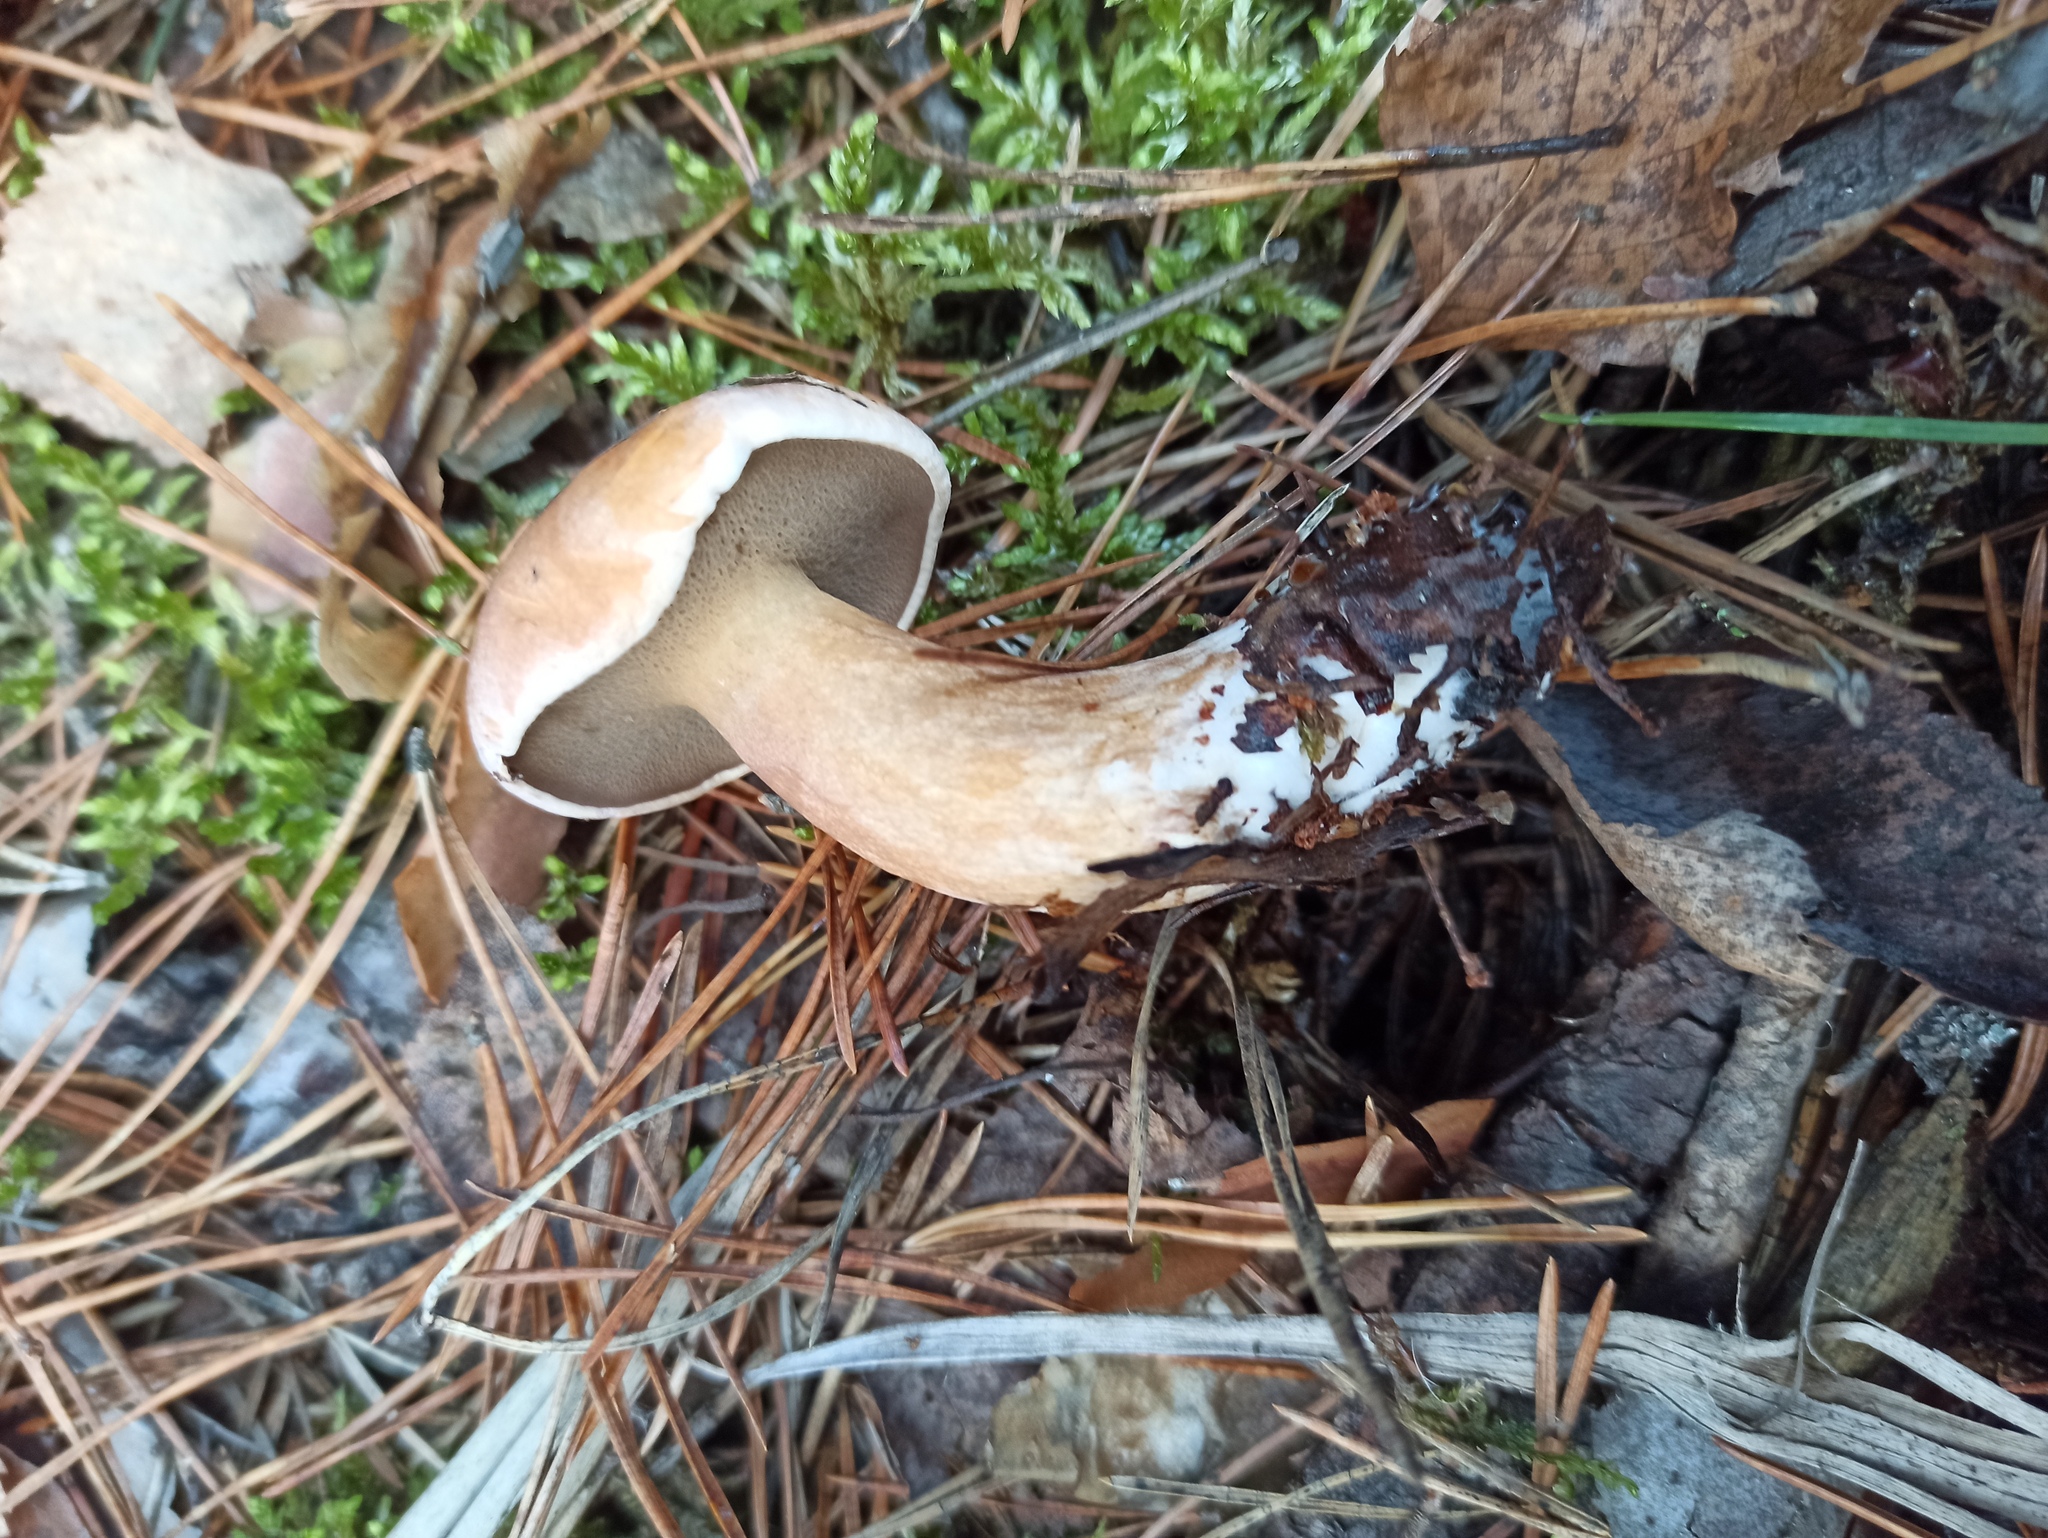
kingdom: Fungi
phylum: Basidiomycota
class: Agaricomycetes
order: Boletales
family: Suillaceae
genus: Suillus
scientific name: Suillus bovinus
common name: Bovine bolete
